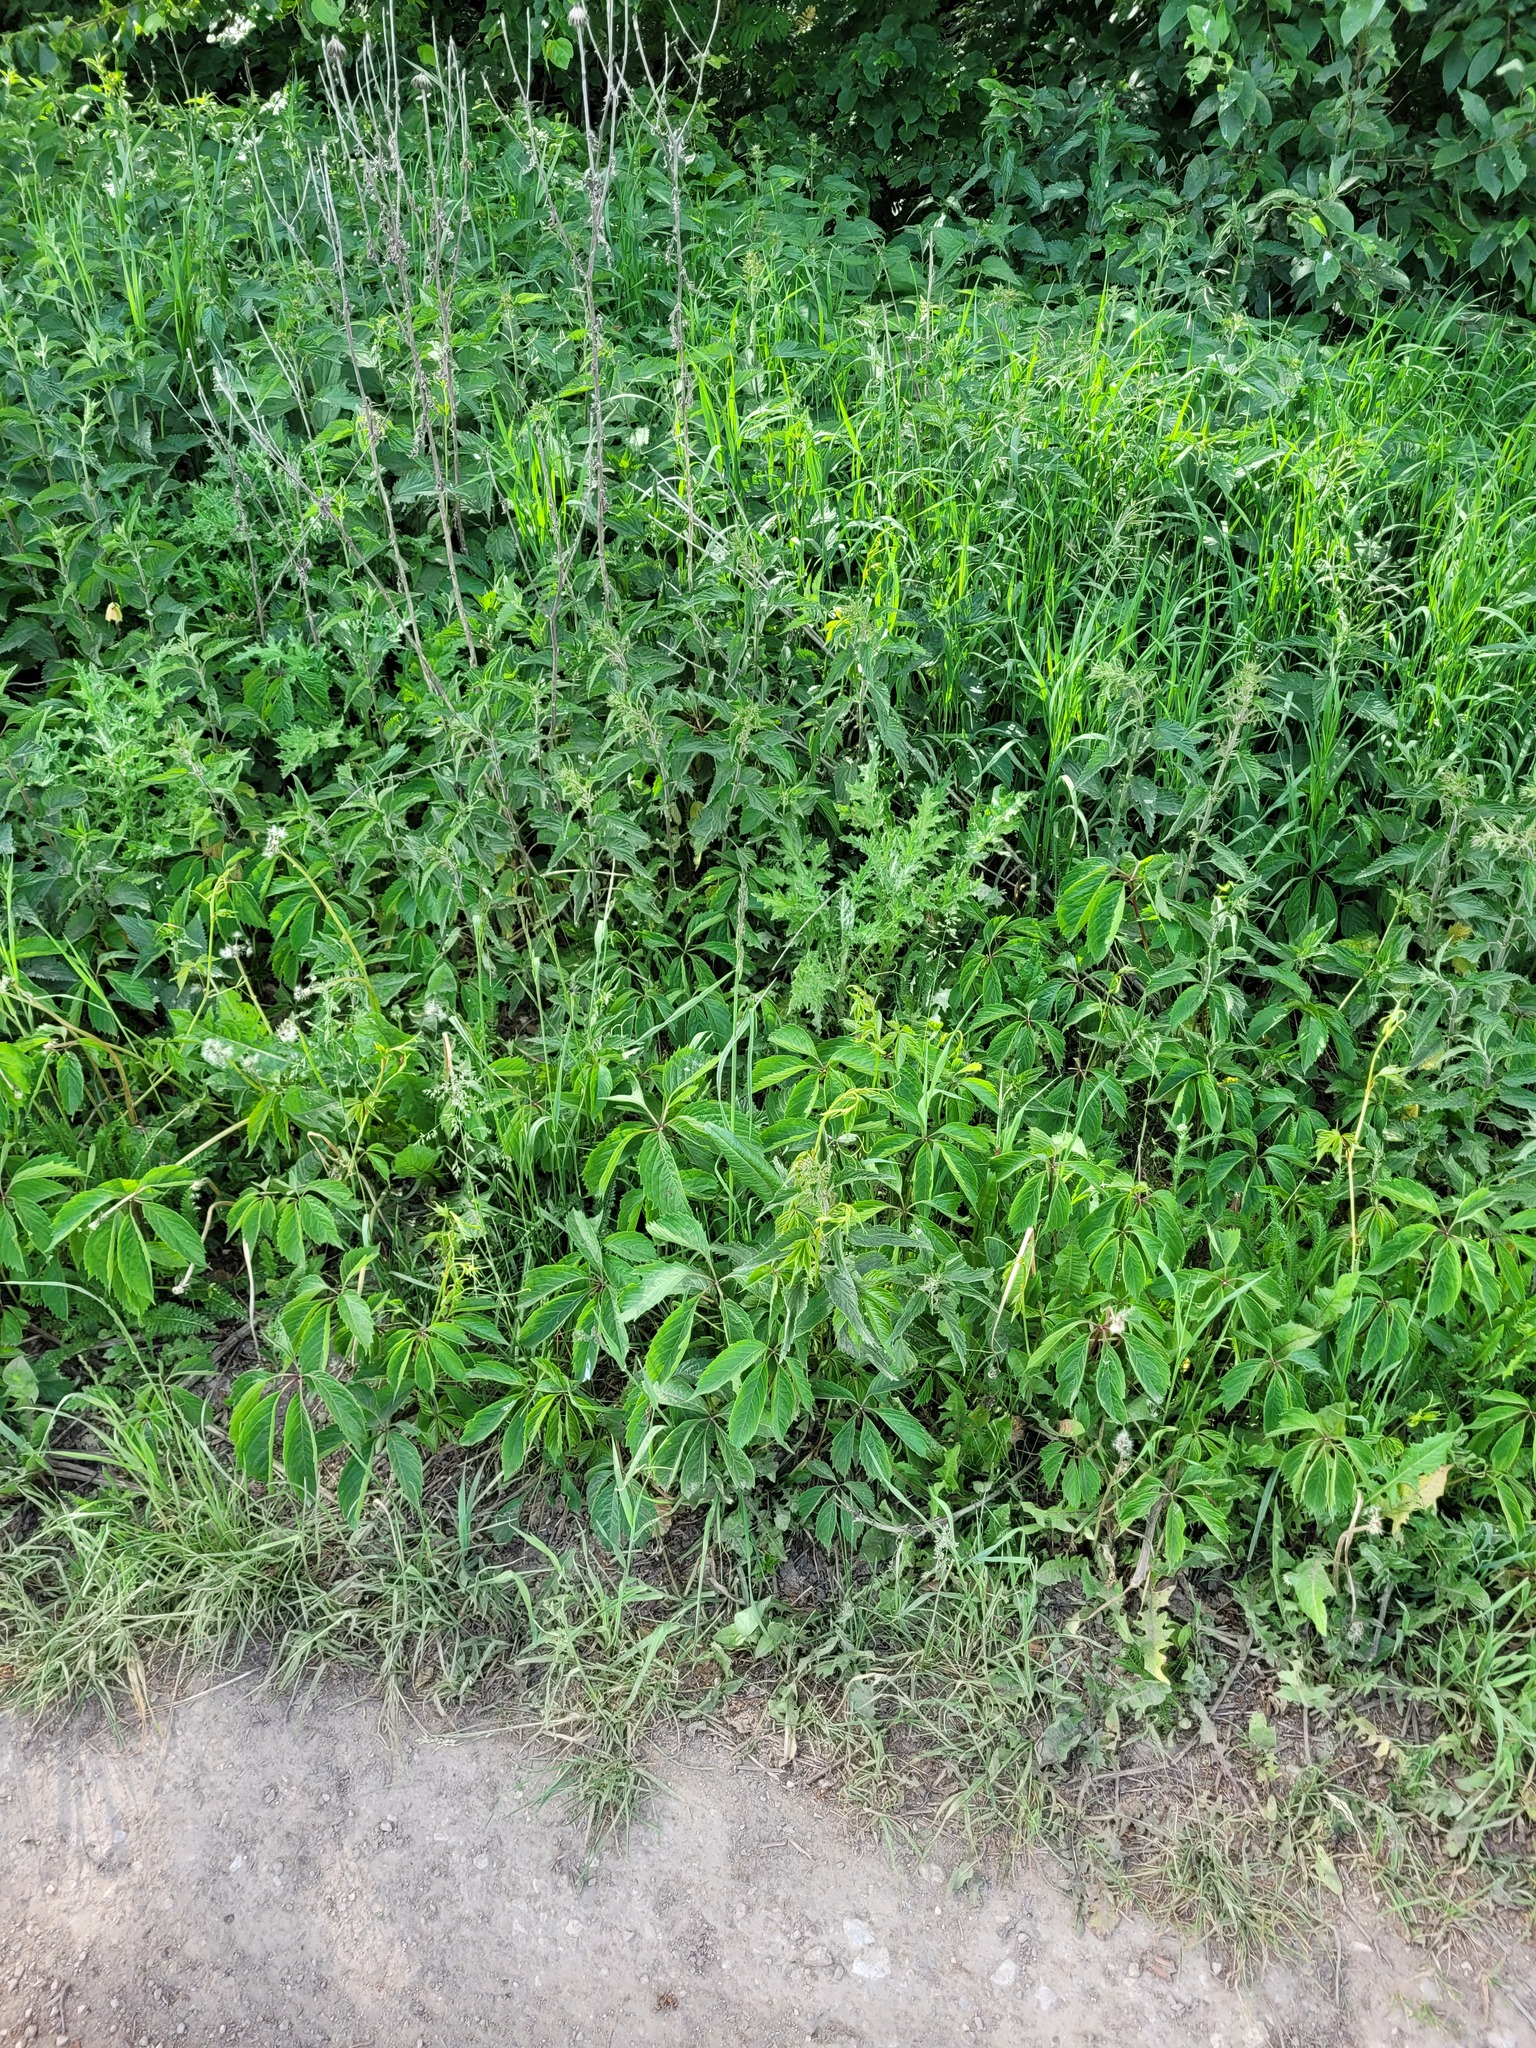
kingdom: Plantae
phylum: Tracheophyta
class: Magnoliopsida
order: Vitales
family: Vitaceae
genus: Parthenocissus
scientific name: Parthenocissus inserta
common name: False virginia-creeper
